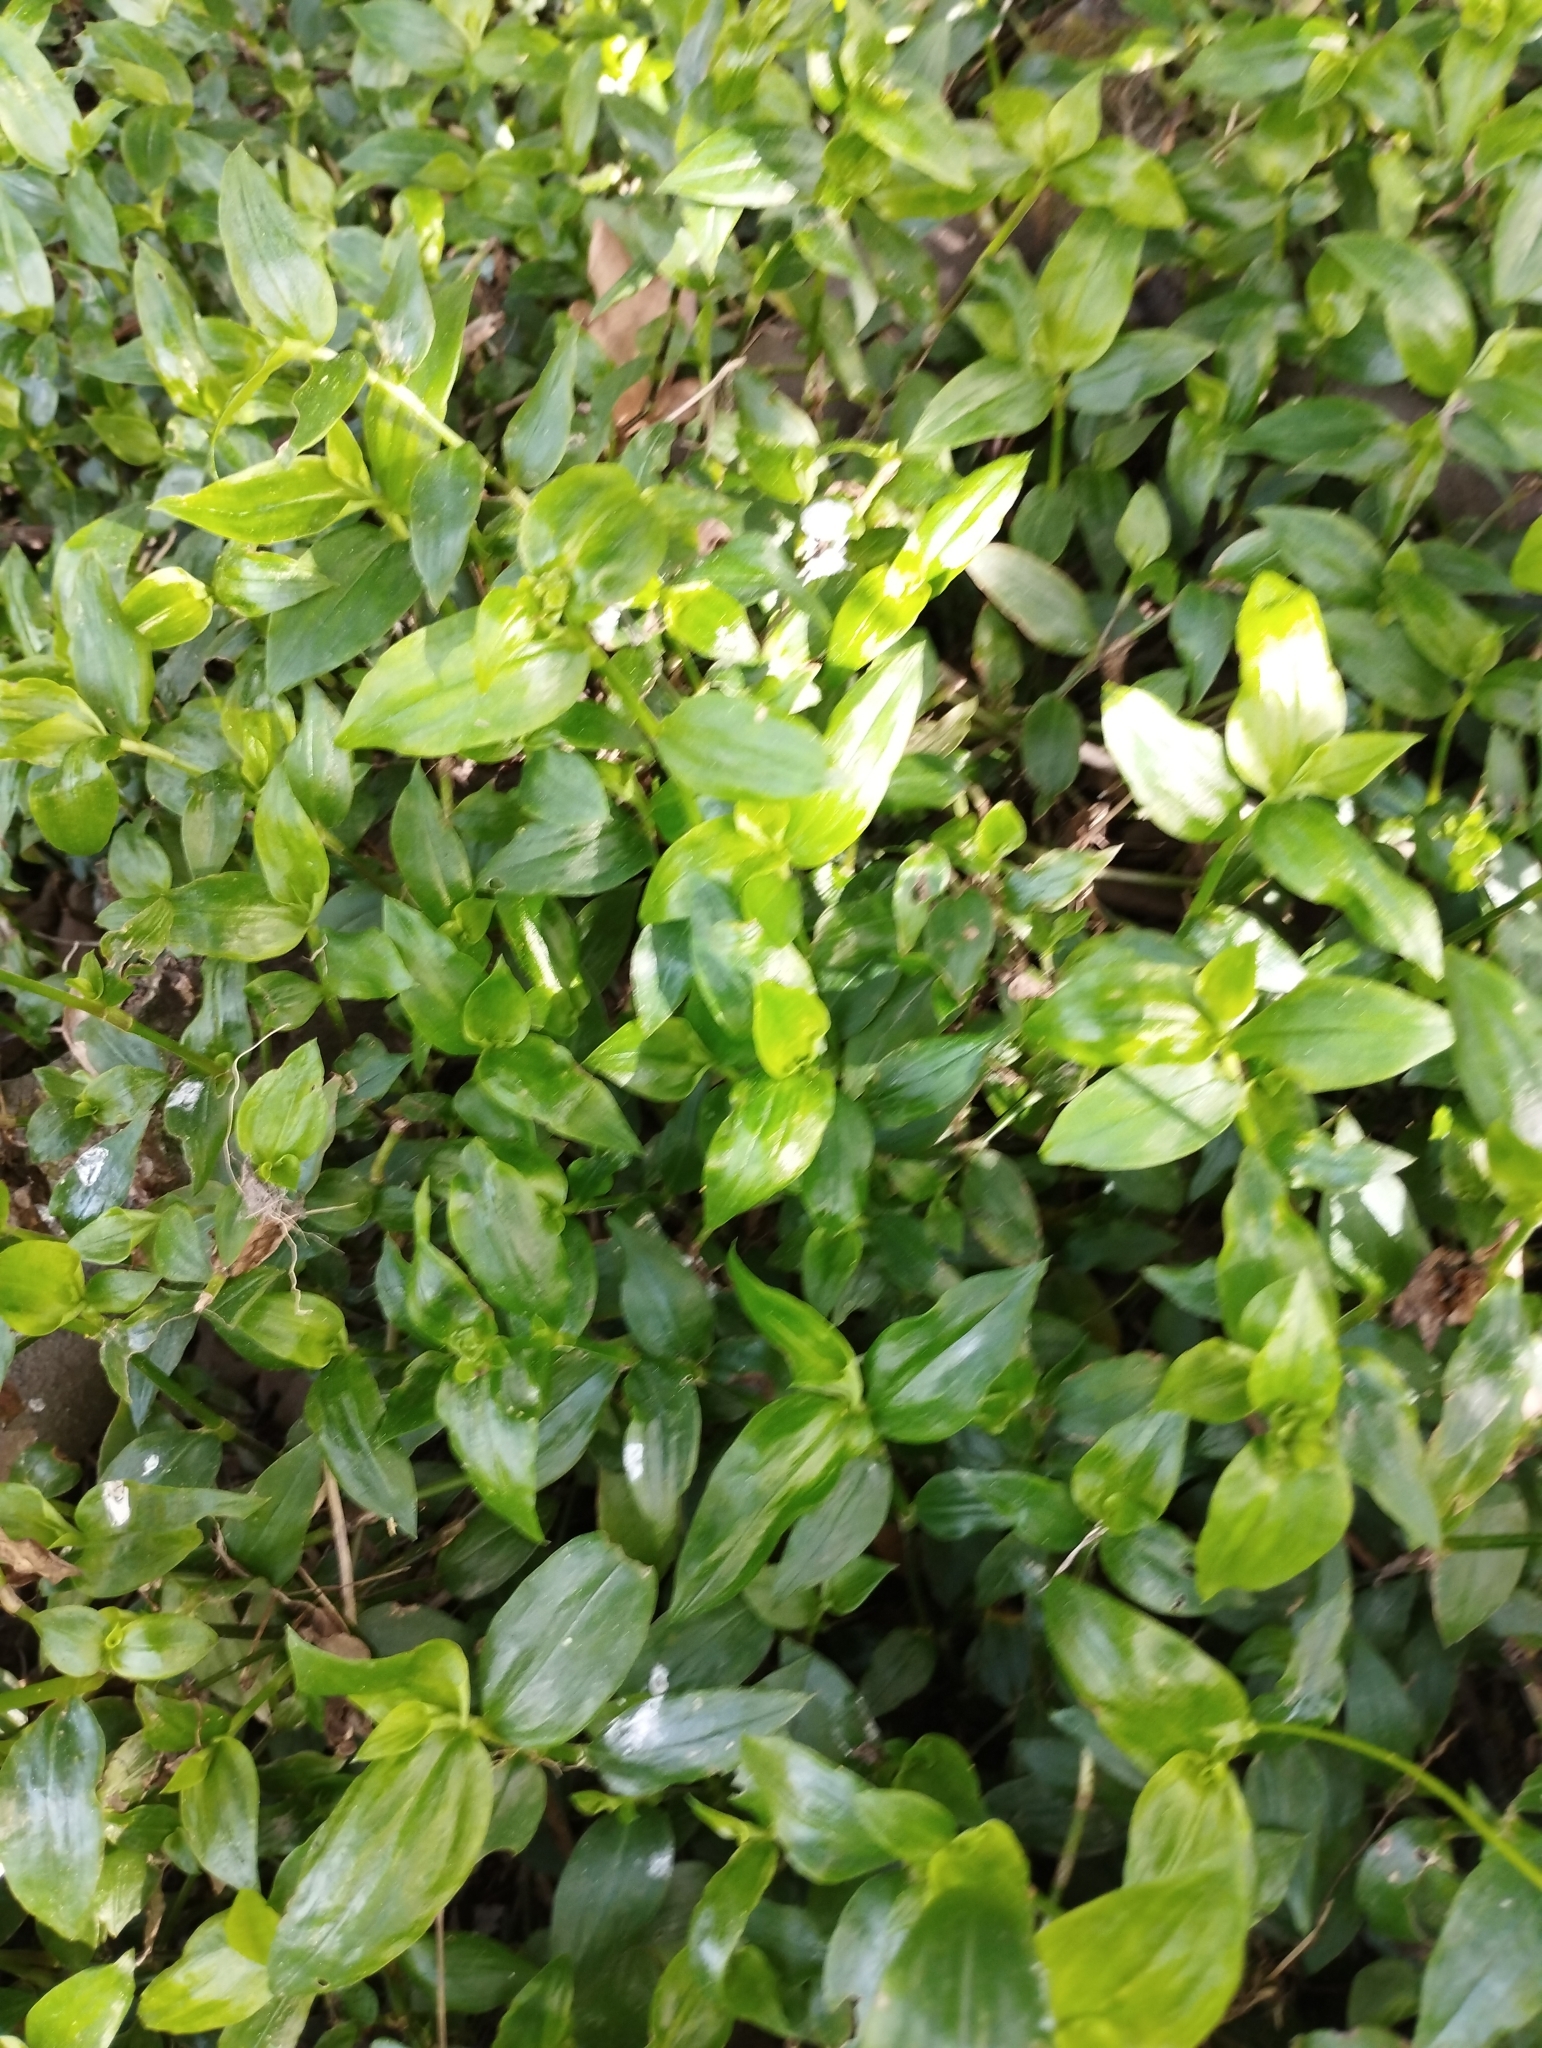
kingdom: Plantae
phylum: Tracheophyta
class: Liliopsida
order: Commelinales
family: Commelinaceae
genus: Tradescantia
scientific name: Tradescantia fluminensis
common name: Wandering-jew
